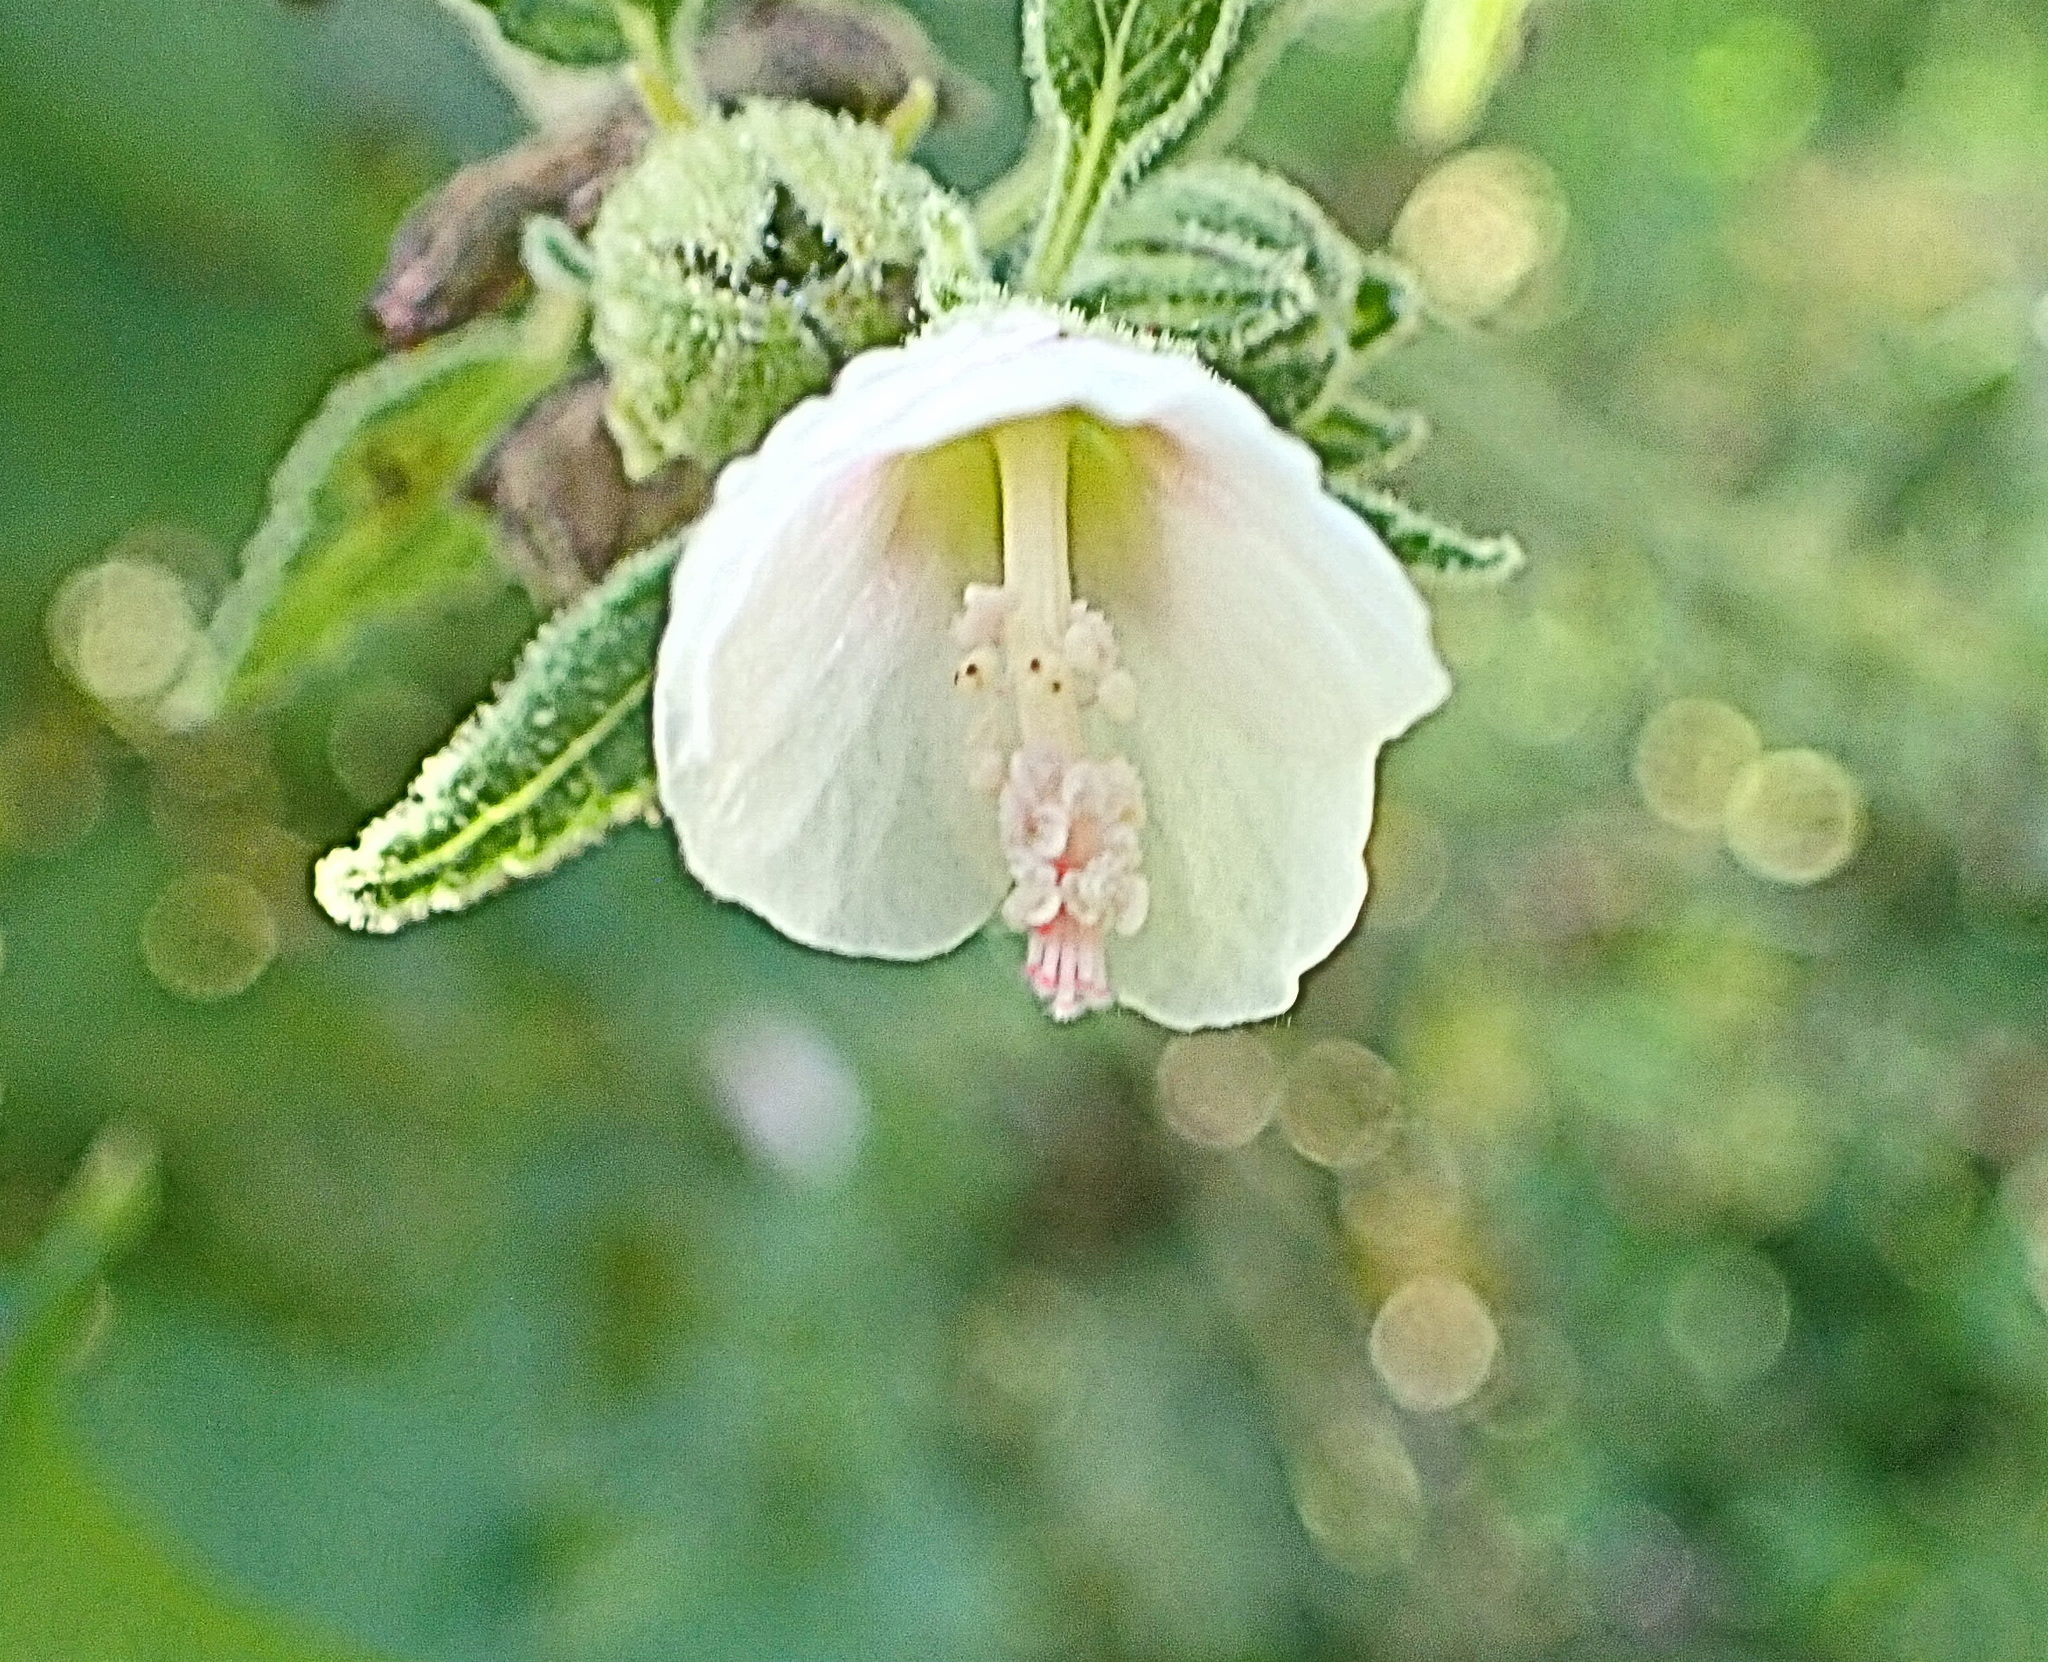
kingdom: Plantae
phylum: Tracheophyta
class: Magnoliopsida
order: Malvales
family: Malvaceae
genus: Pavonia
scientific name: Pavonia columella
